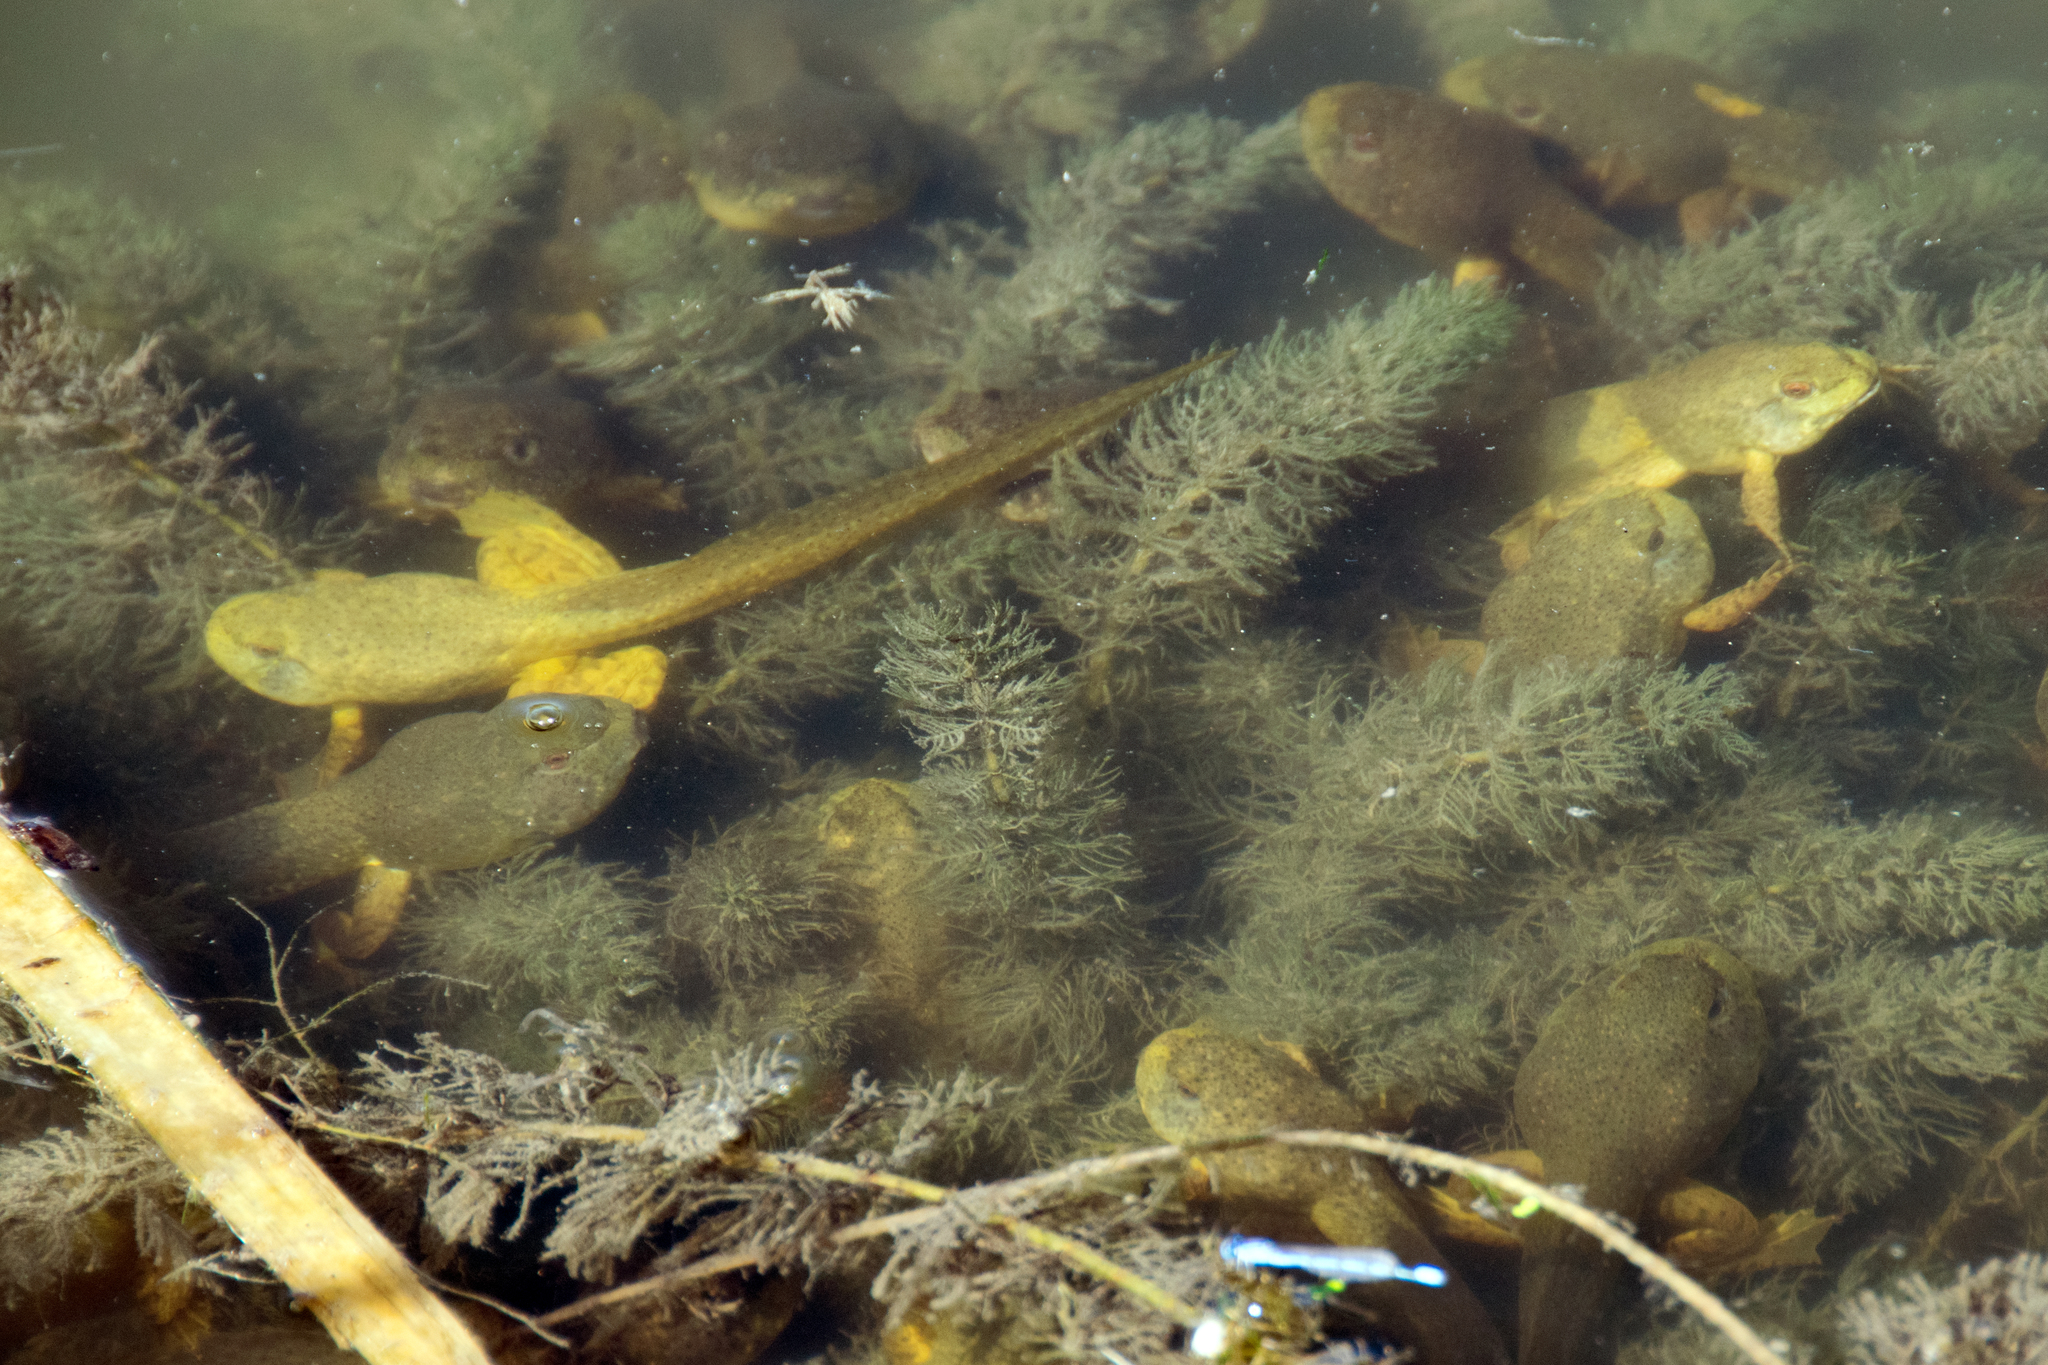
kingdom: Animalia
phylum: Chordata
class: Amphibia
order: Anura
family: Ranidae
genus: Lithobates
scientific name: Lithobates catesbeianus
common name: American bullfrog
